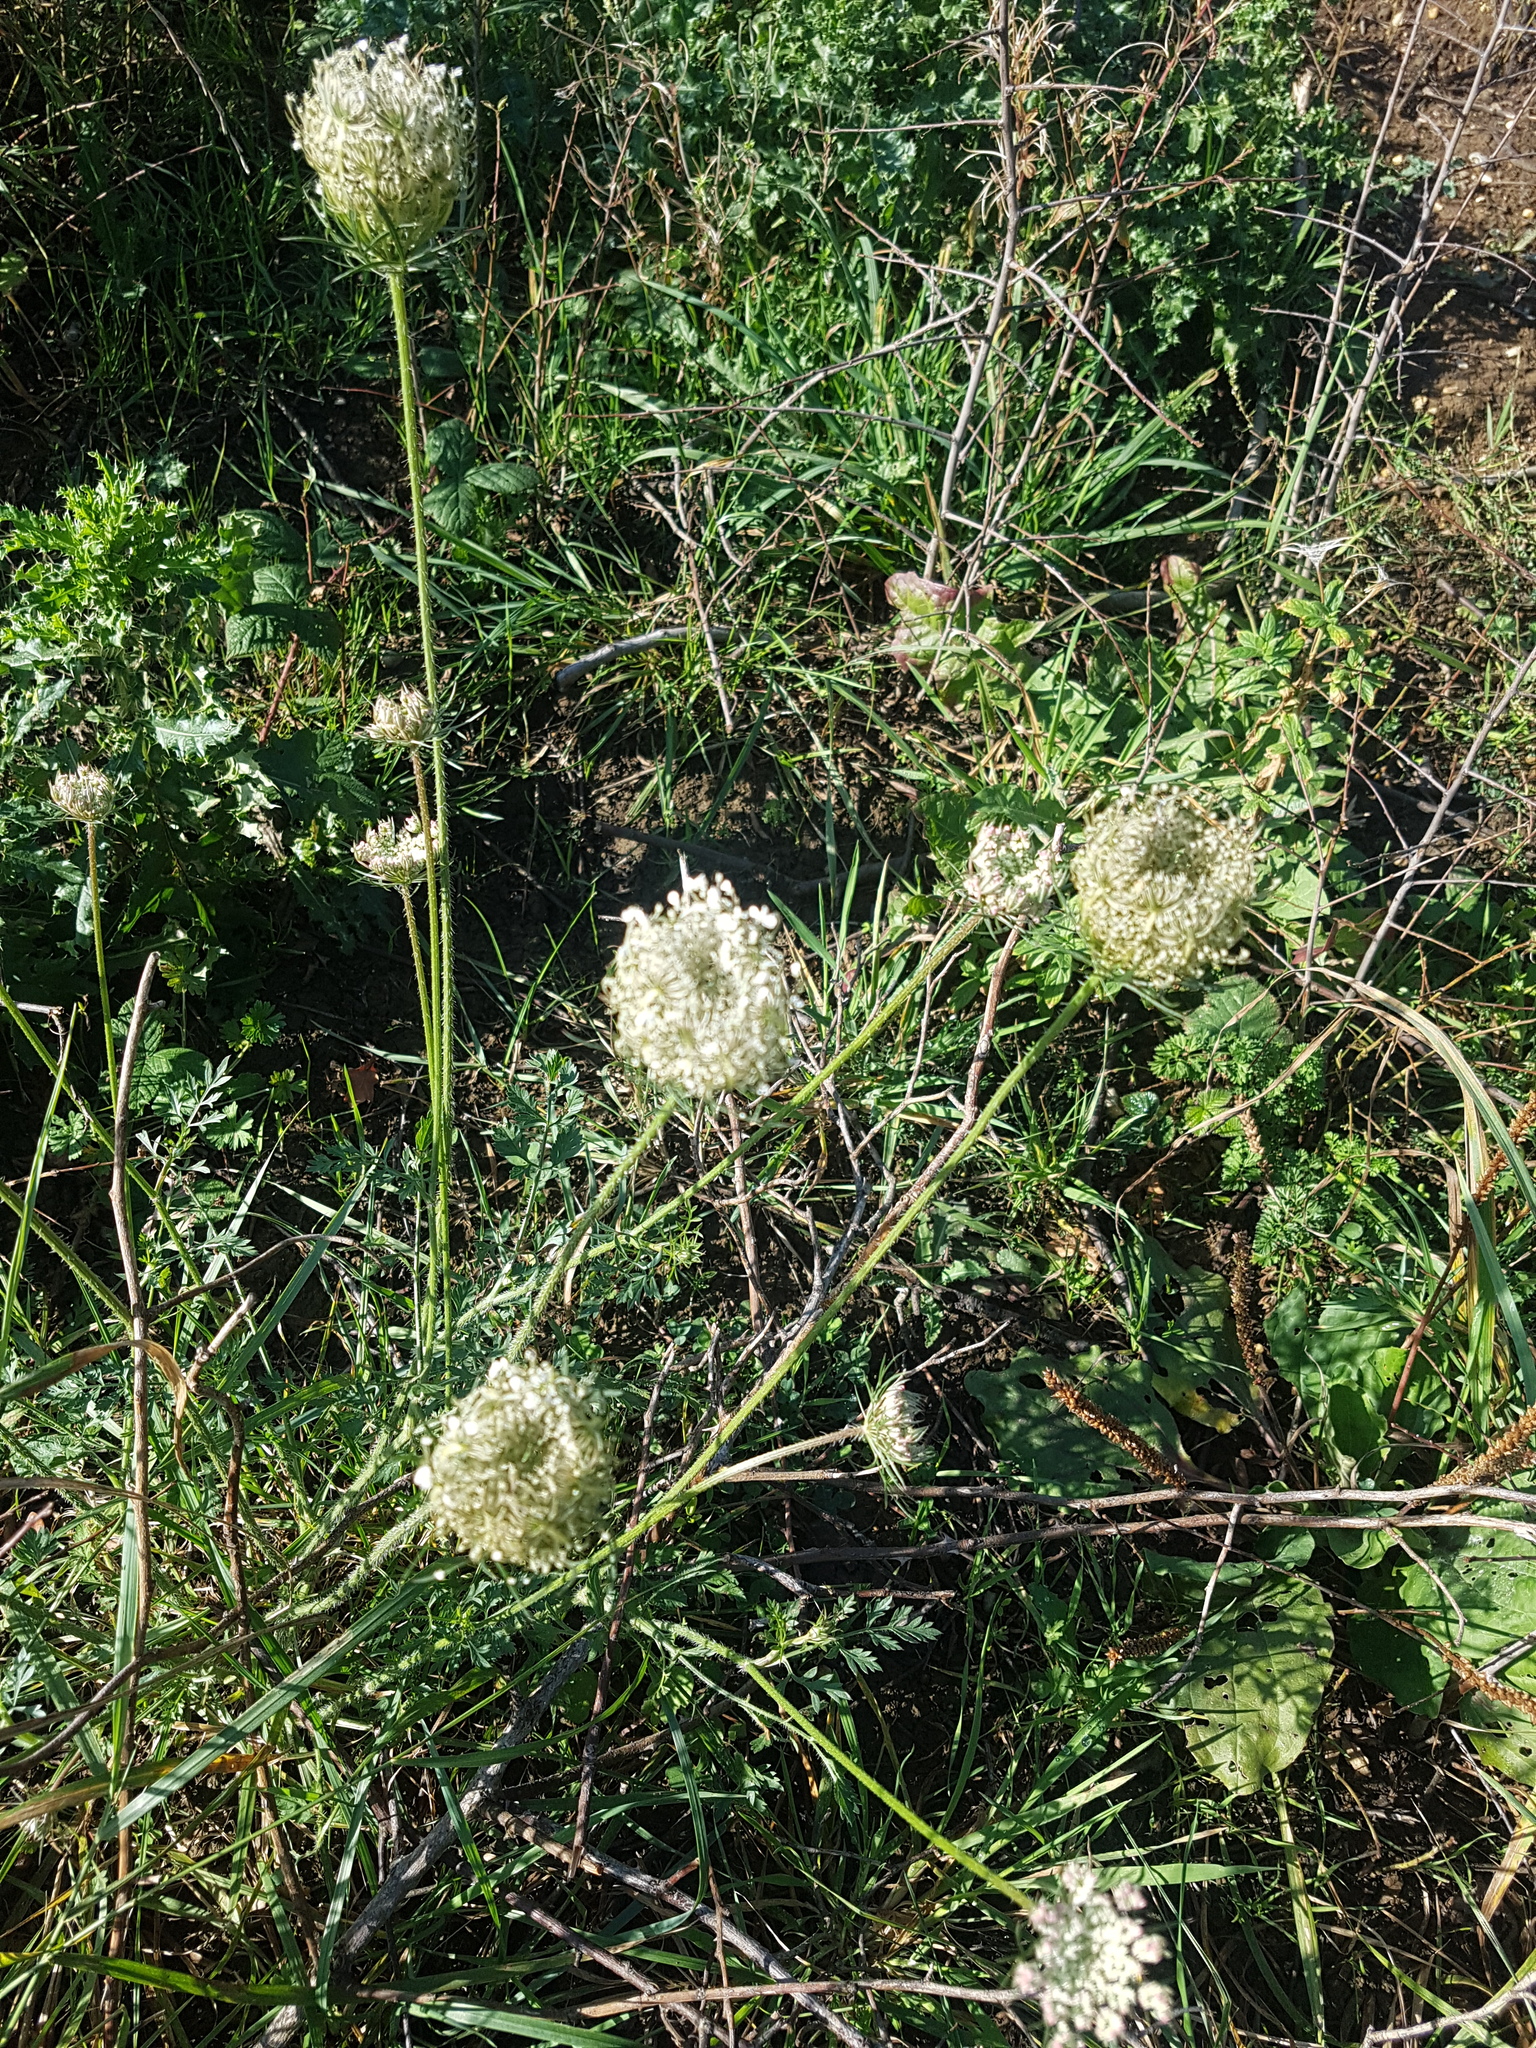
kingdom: Plantae
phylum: Tracheophyta
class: Magnoliopsida
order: Apiales
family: Apiaceae
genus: Daucus
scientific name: Daucus carota
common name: Wild carrot
